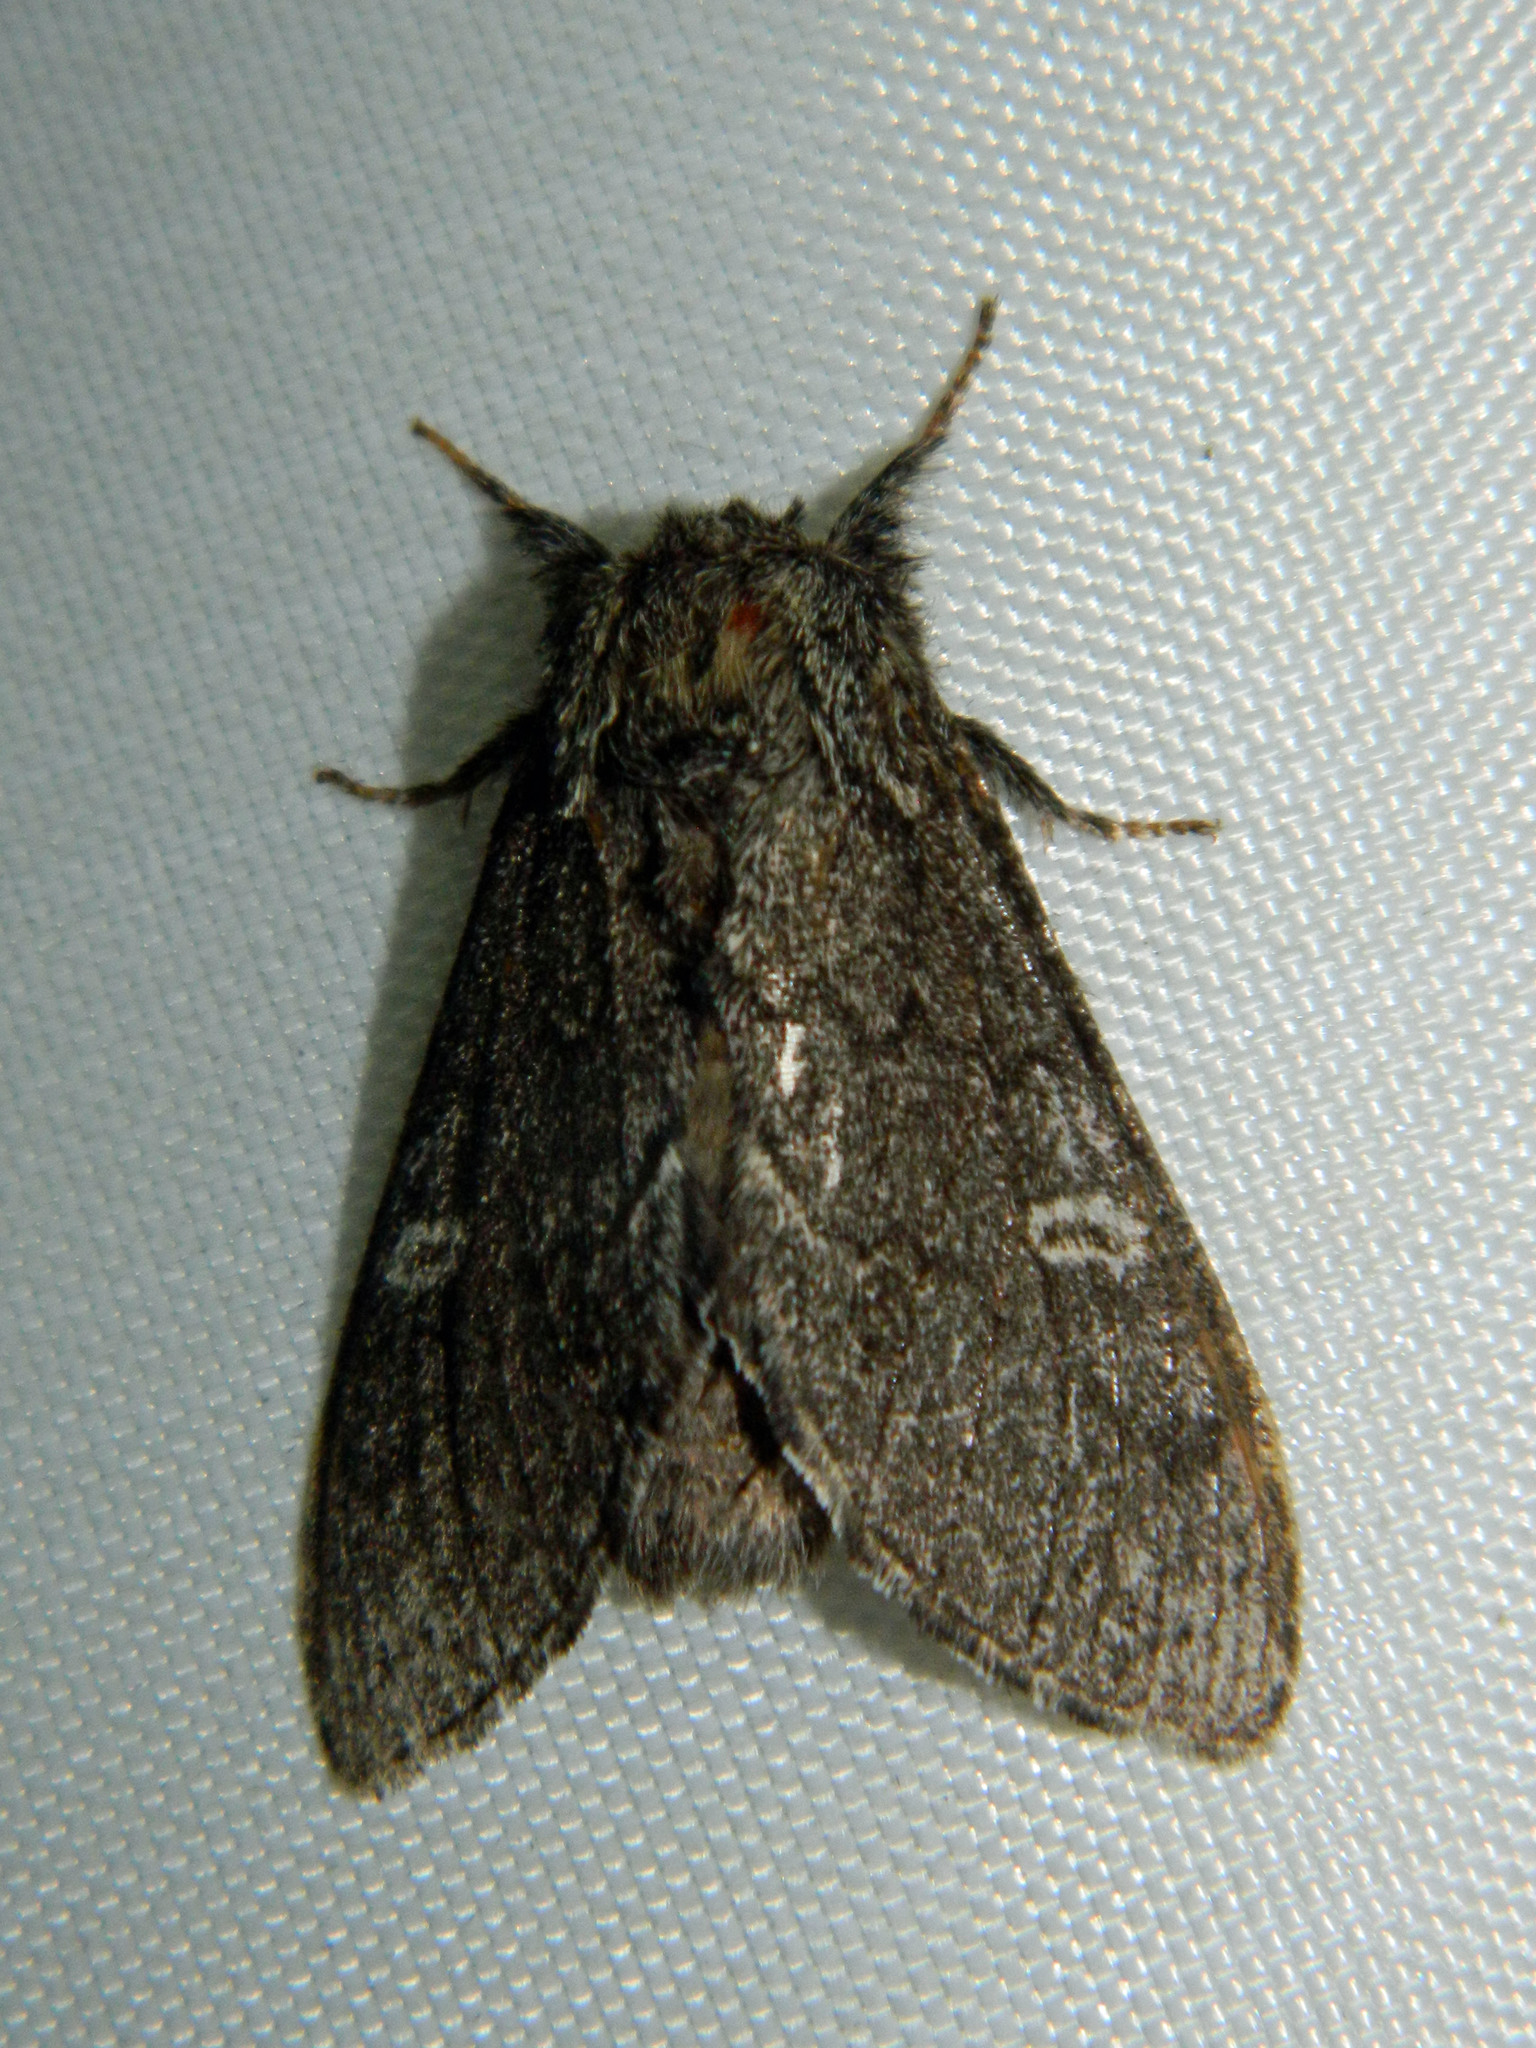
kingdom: Animalia
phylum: Arthropoda
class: Insecta
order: Lepidoptera
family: Notodontidae
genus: Notodonta
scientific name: Notodonta torva
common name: Large dark prominent
